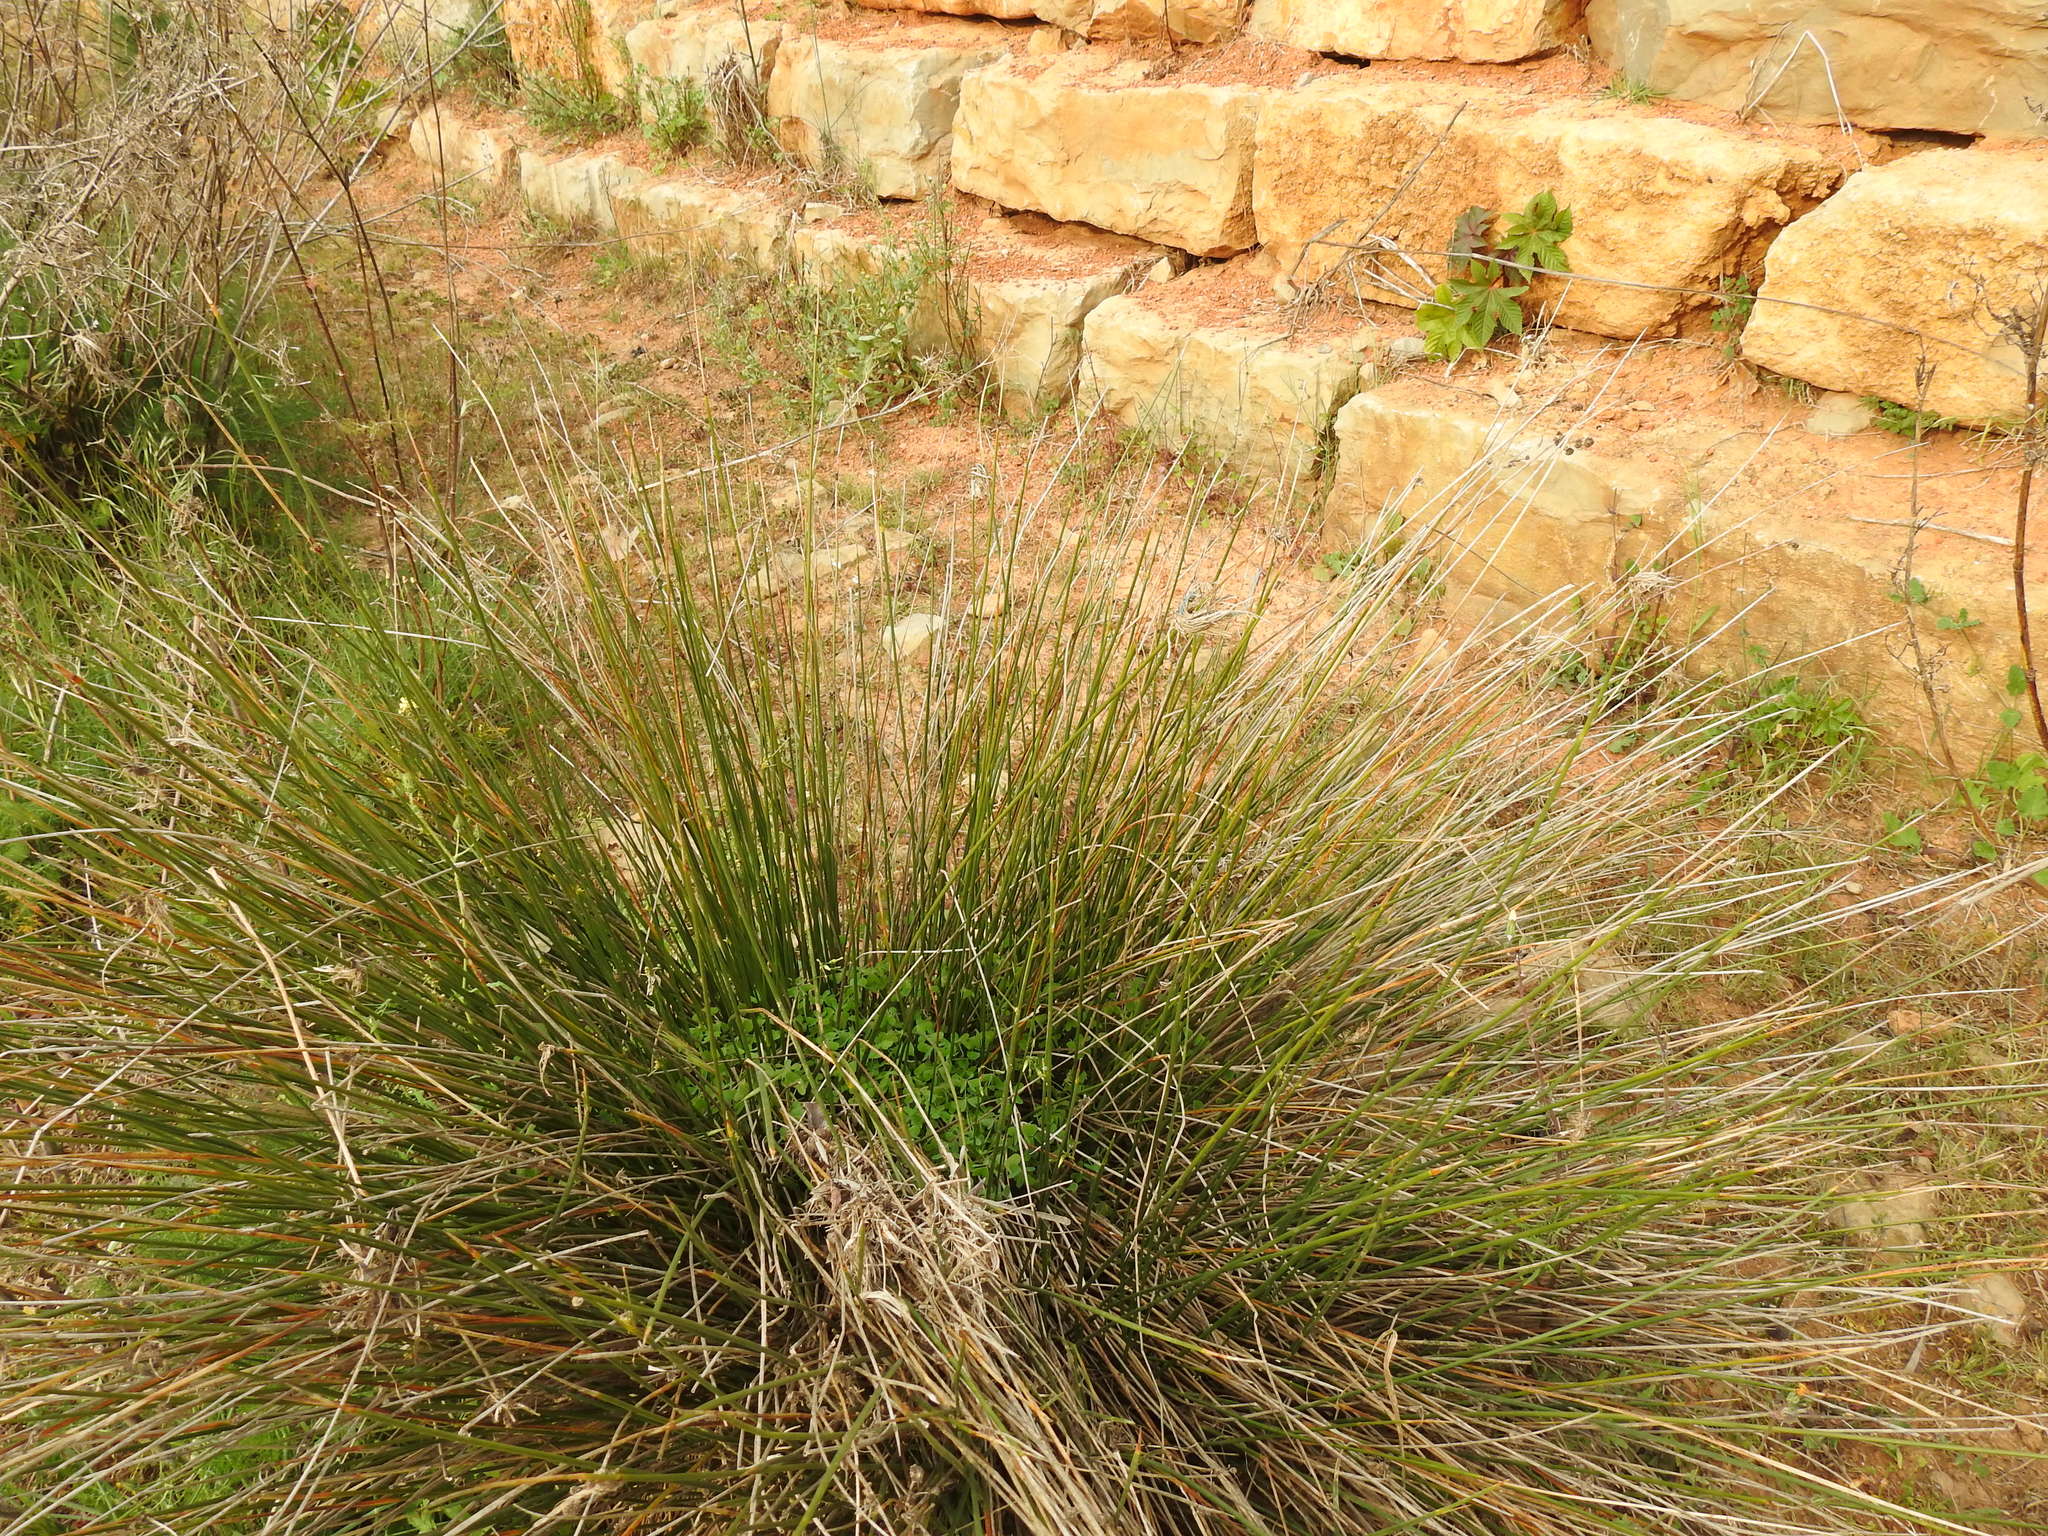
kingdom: Plantae
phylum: Tracheophyta
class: Liliopsida
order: Poales
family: Cyperaceae
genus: Scirpoides
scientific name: Scirpoides holoschoenus
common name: Round-headed club-rush
